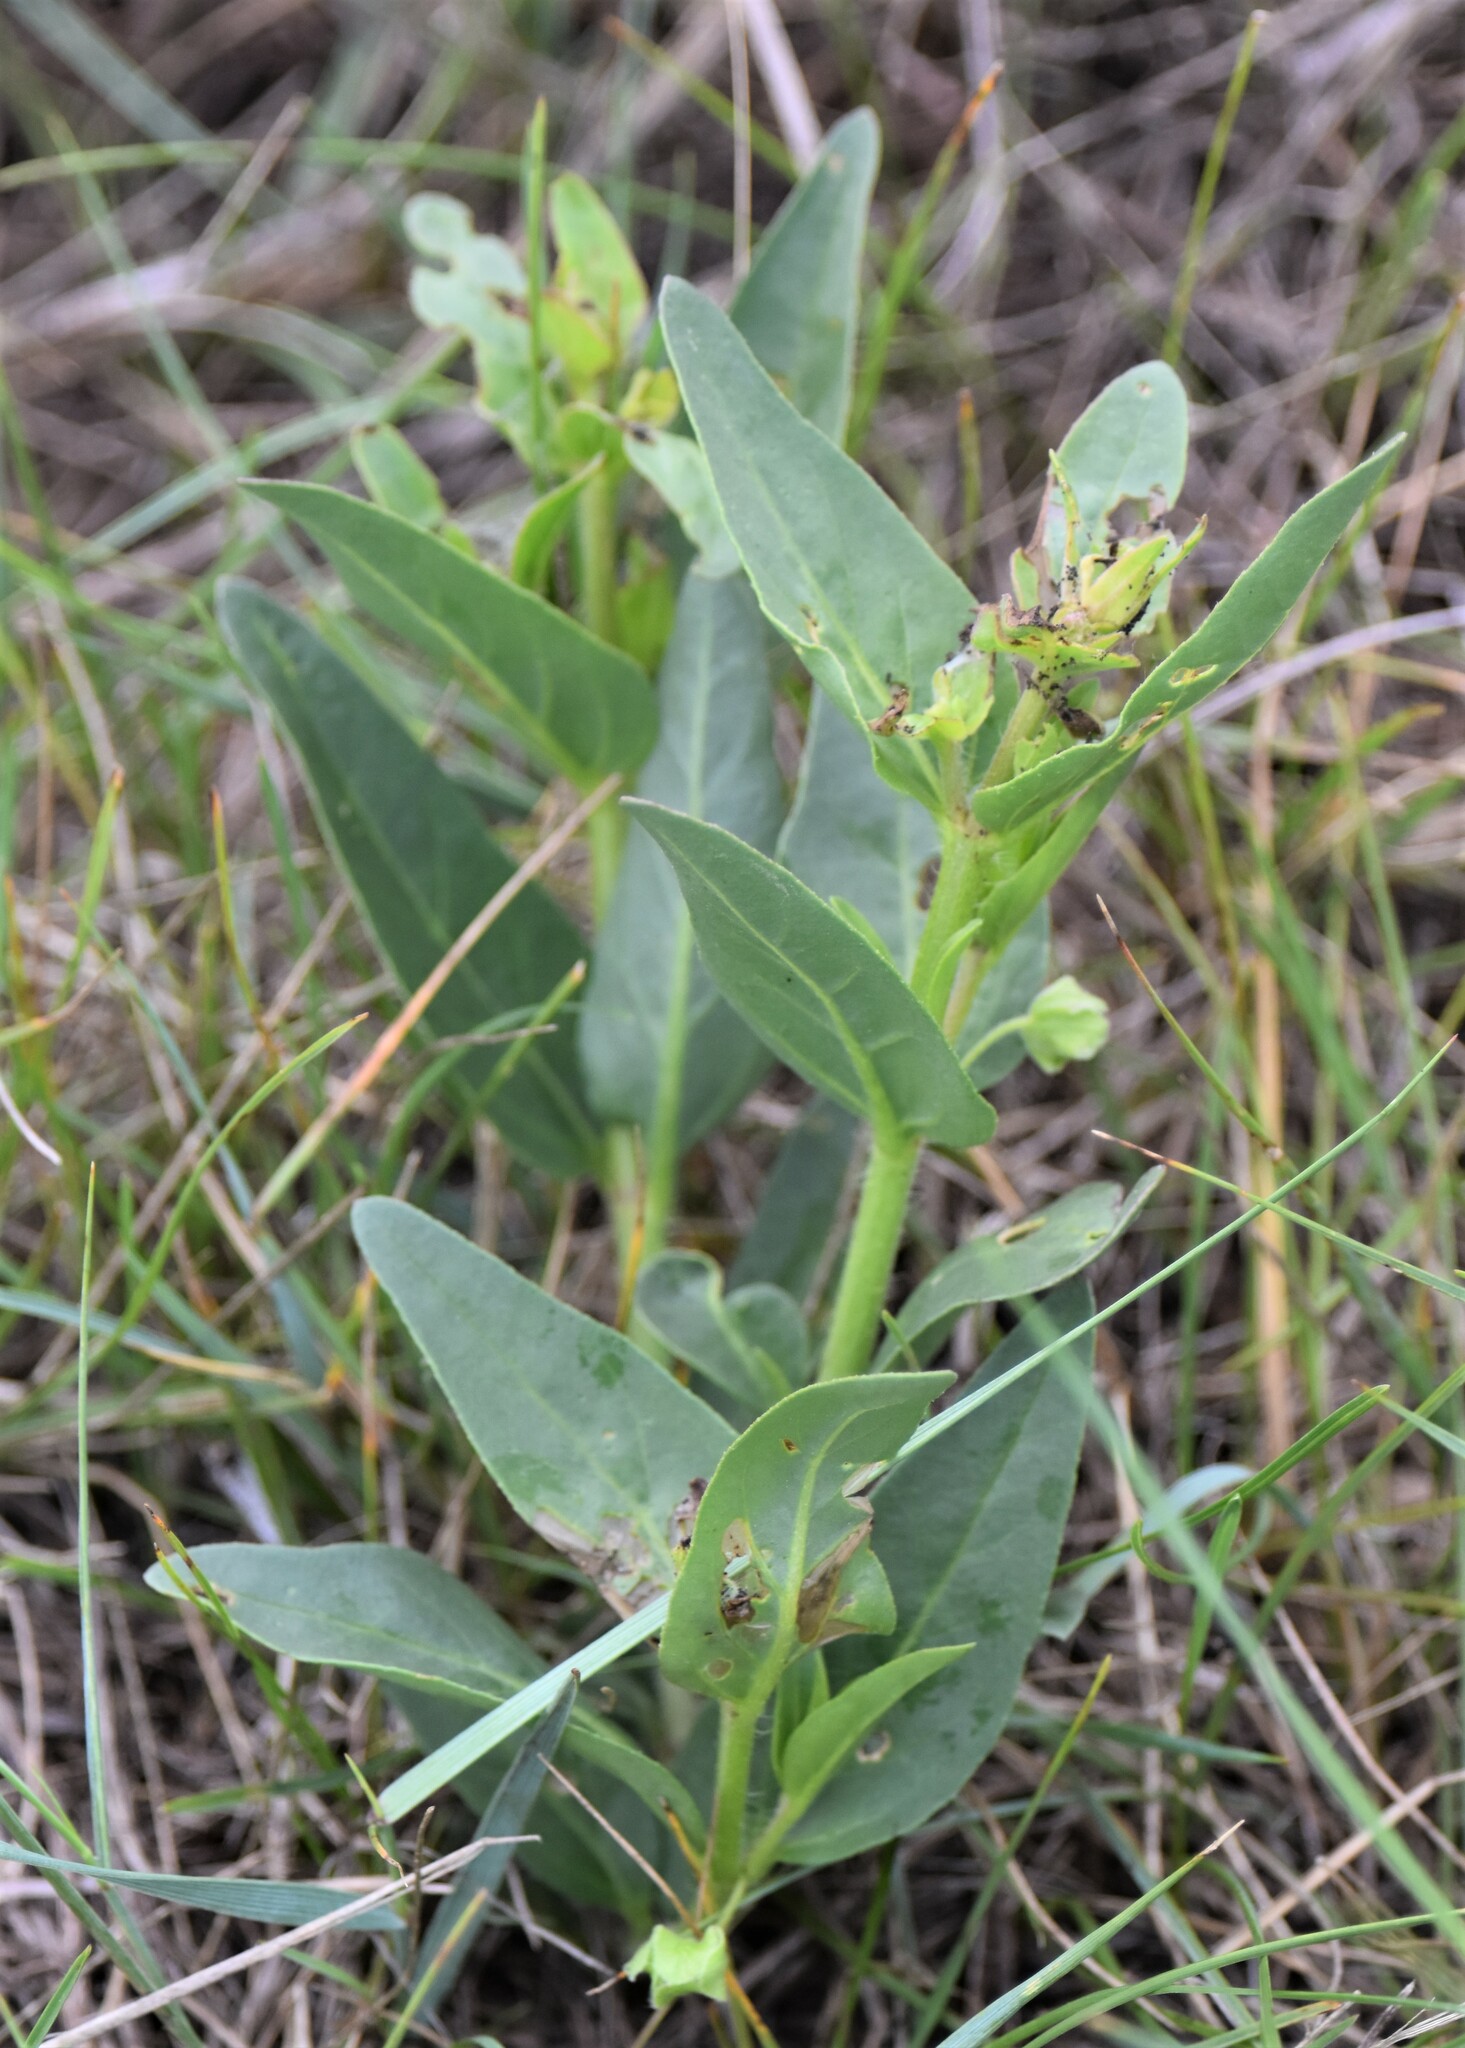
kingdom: Plantae
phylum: Tracheophyta
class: Magnoliopsida
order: Caryophyllales
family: Nyctaginaceae
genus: Mirabilis
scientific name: Mirabilis albida
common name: Hairy four-o'clock
